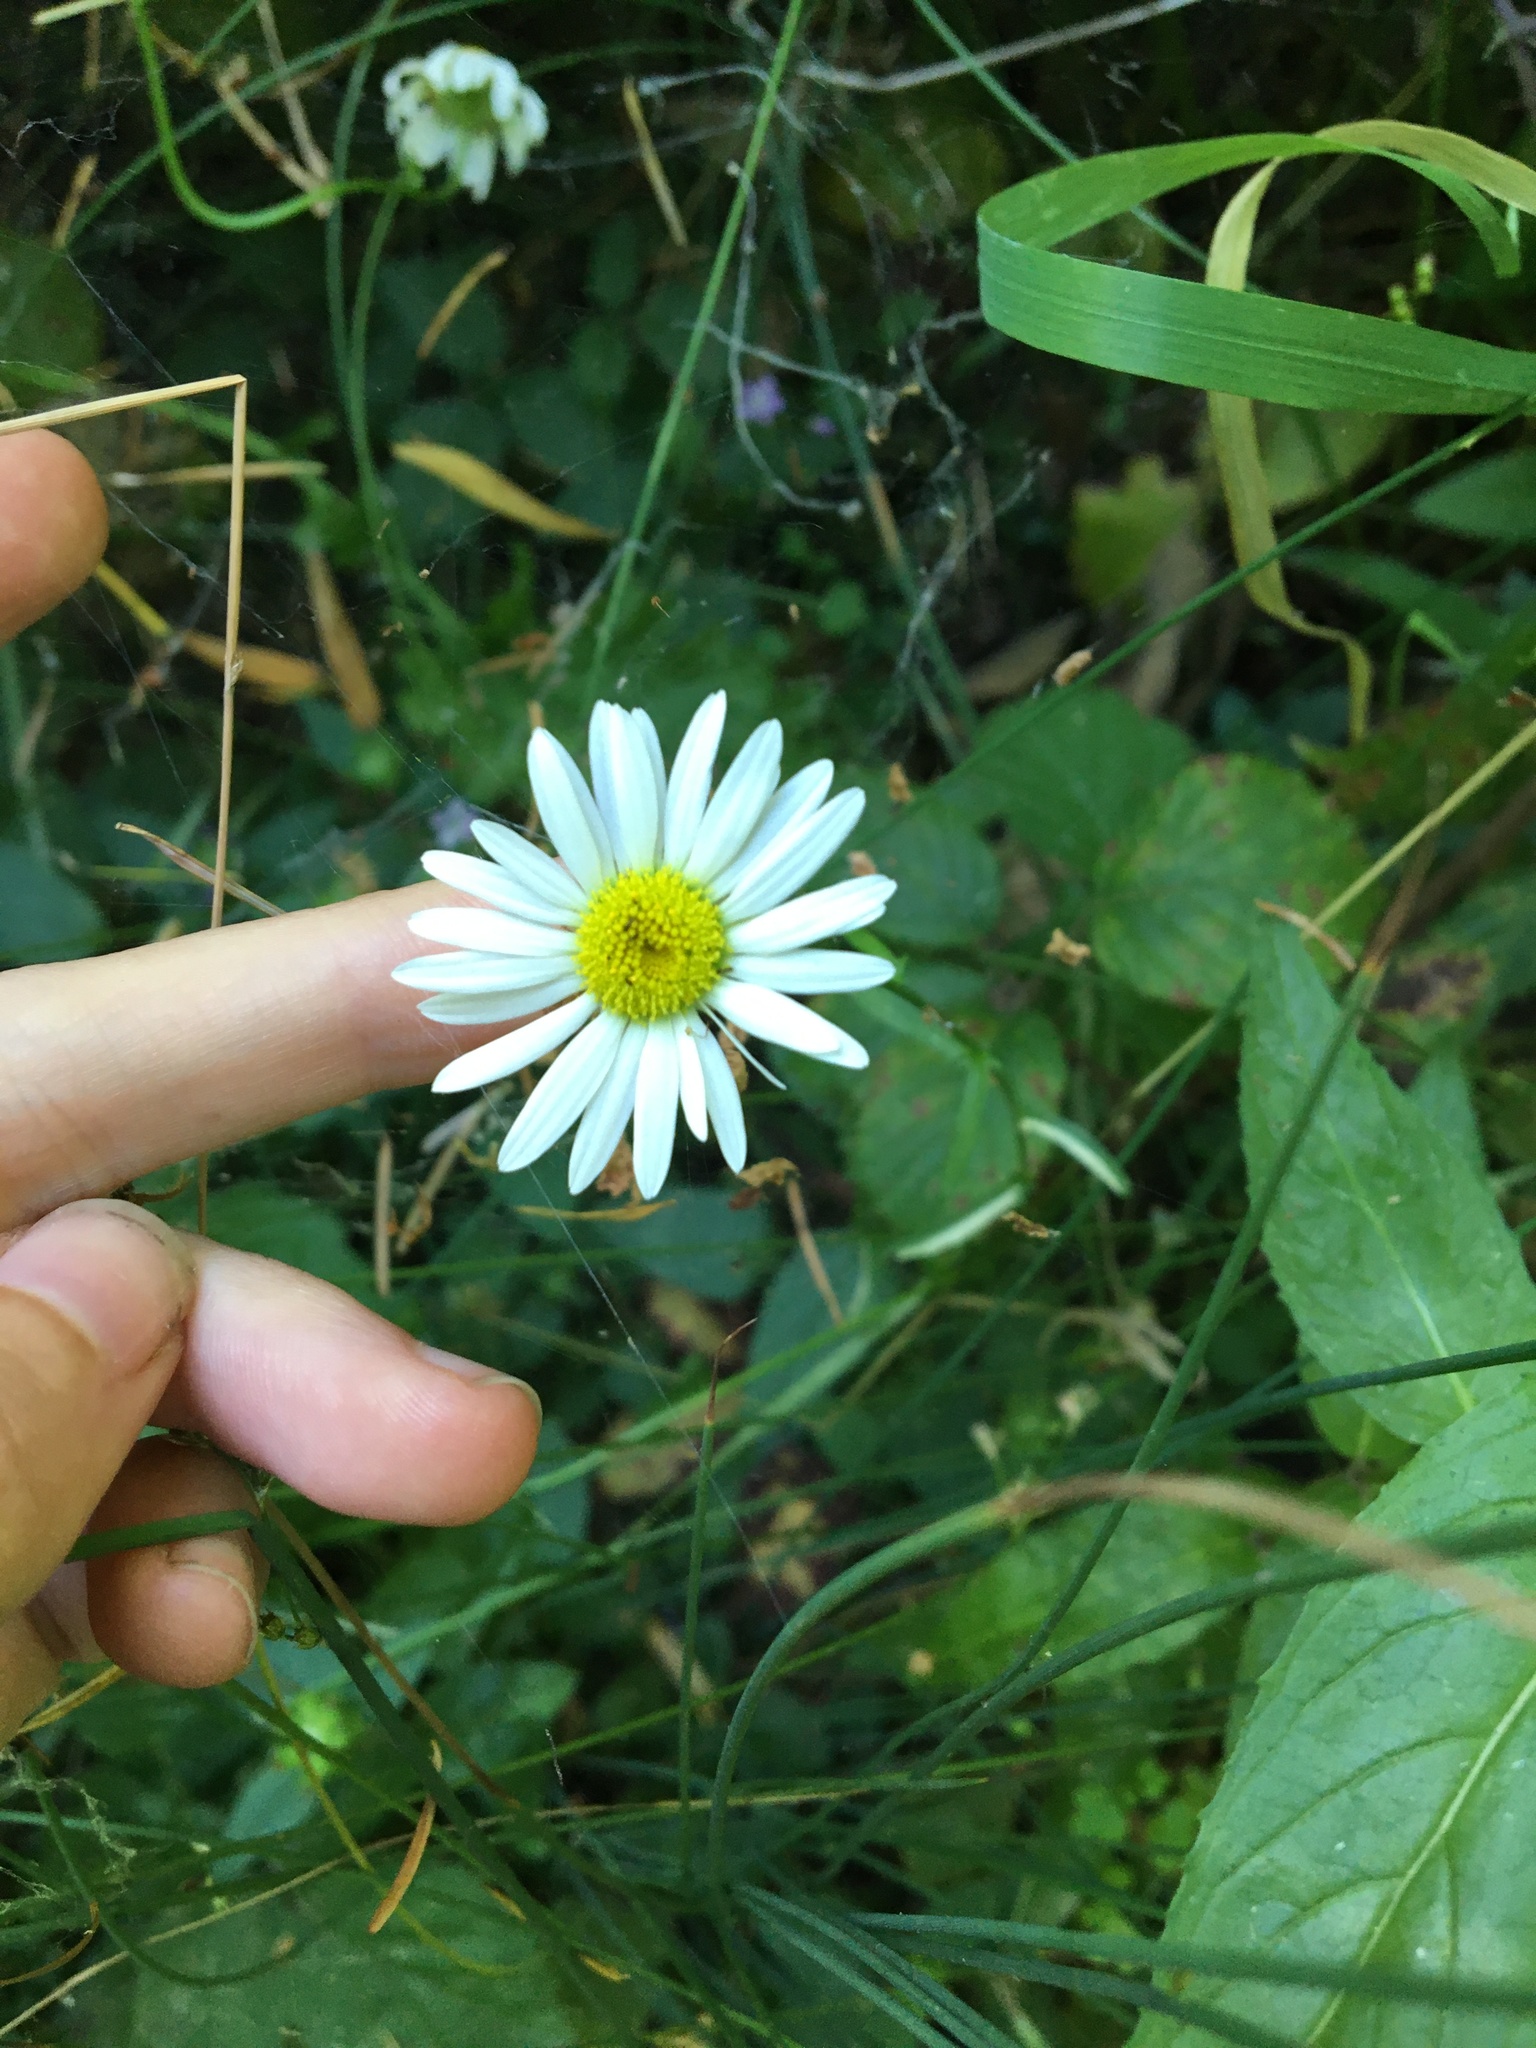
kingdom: Plantae
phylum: Tracheophyta
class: Magnoliopsida
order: Asterales
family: Asteraceae
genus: Leucanthemum
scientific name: Leucanthemum vulgare
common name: Oxeye daisy
